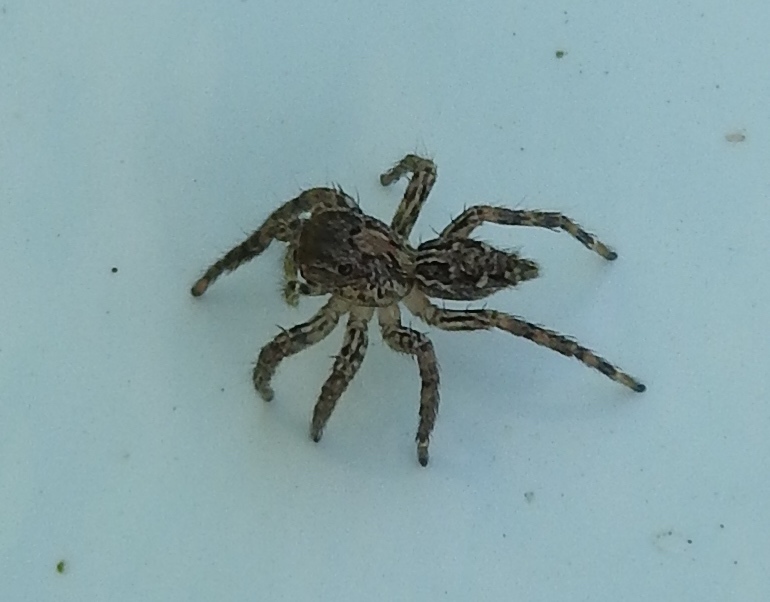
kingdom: Animalia
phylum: Arthropoda
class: Arachnida
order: Araneae
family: Salticidae
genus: Plexippus
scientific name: Plexippus paykulli
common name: Pantropical jumper
